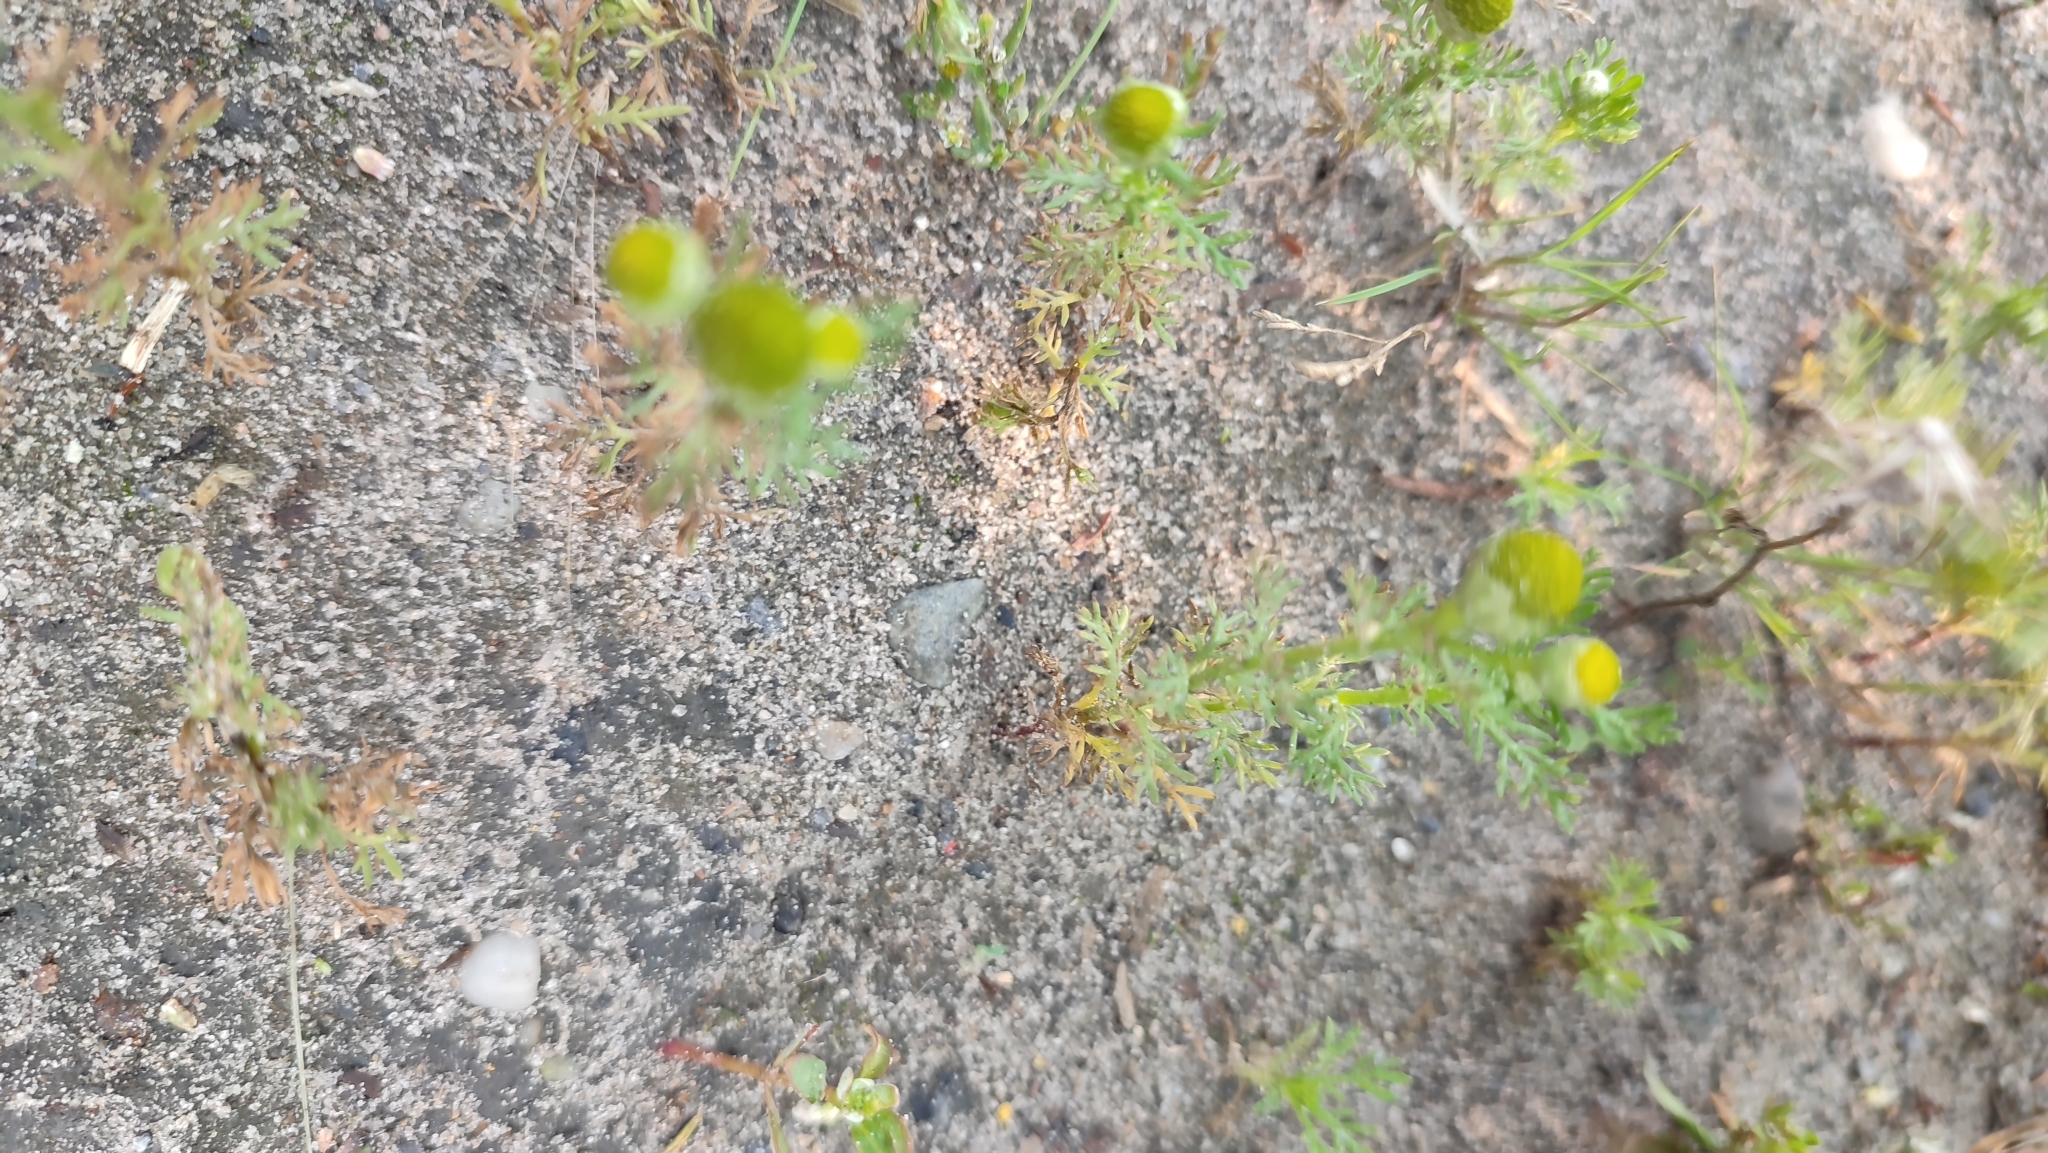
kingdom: Plantae
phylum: Tracheophyta
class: Magnoliopsida
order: Asterales
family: Asteraceae
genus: Matricaria
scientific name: Matricaria discoidea
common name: Disc mayweed
